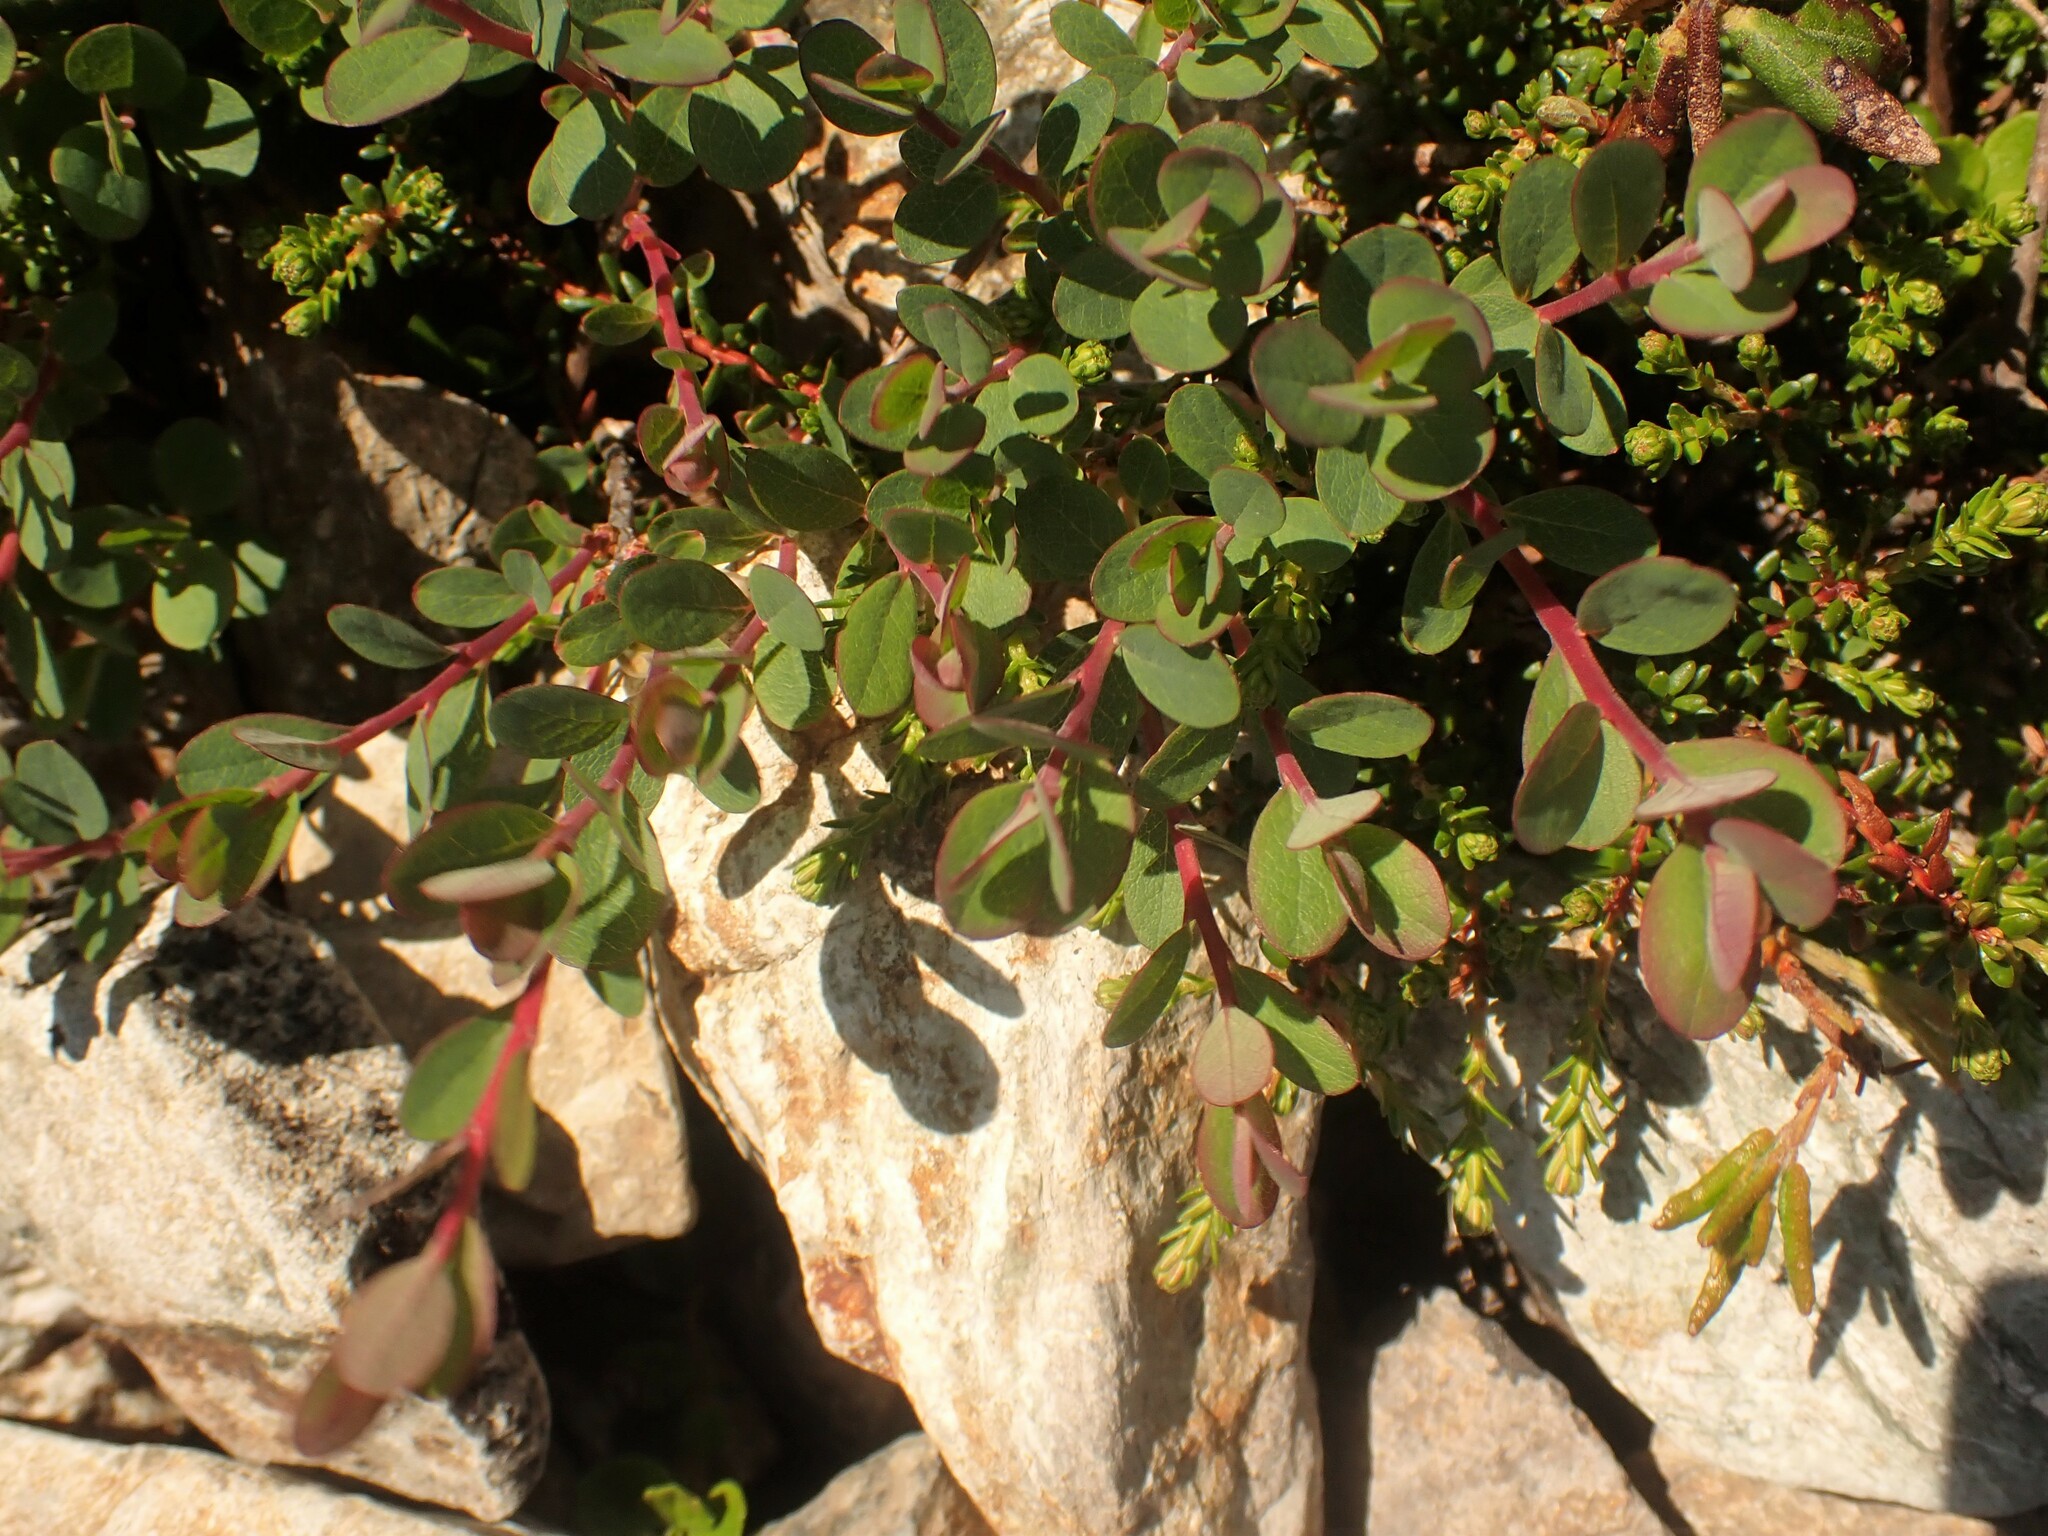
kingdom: Plantae
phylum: Tracheophyta
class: Magnoliopsida
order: Ericales
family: Ericaceae
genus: Vaccinium
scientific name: Vaccinium uliginosum
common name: Bog bilberry
